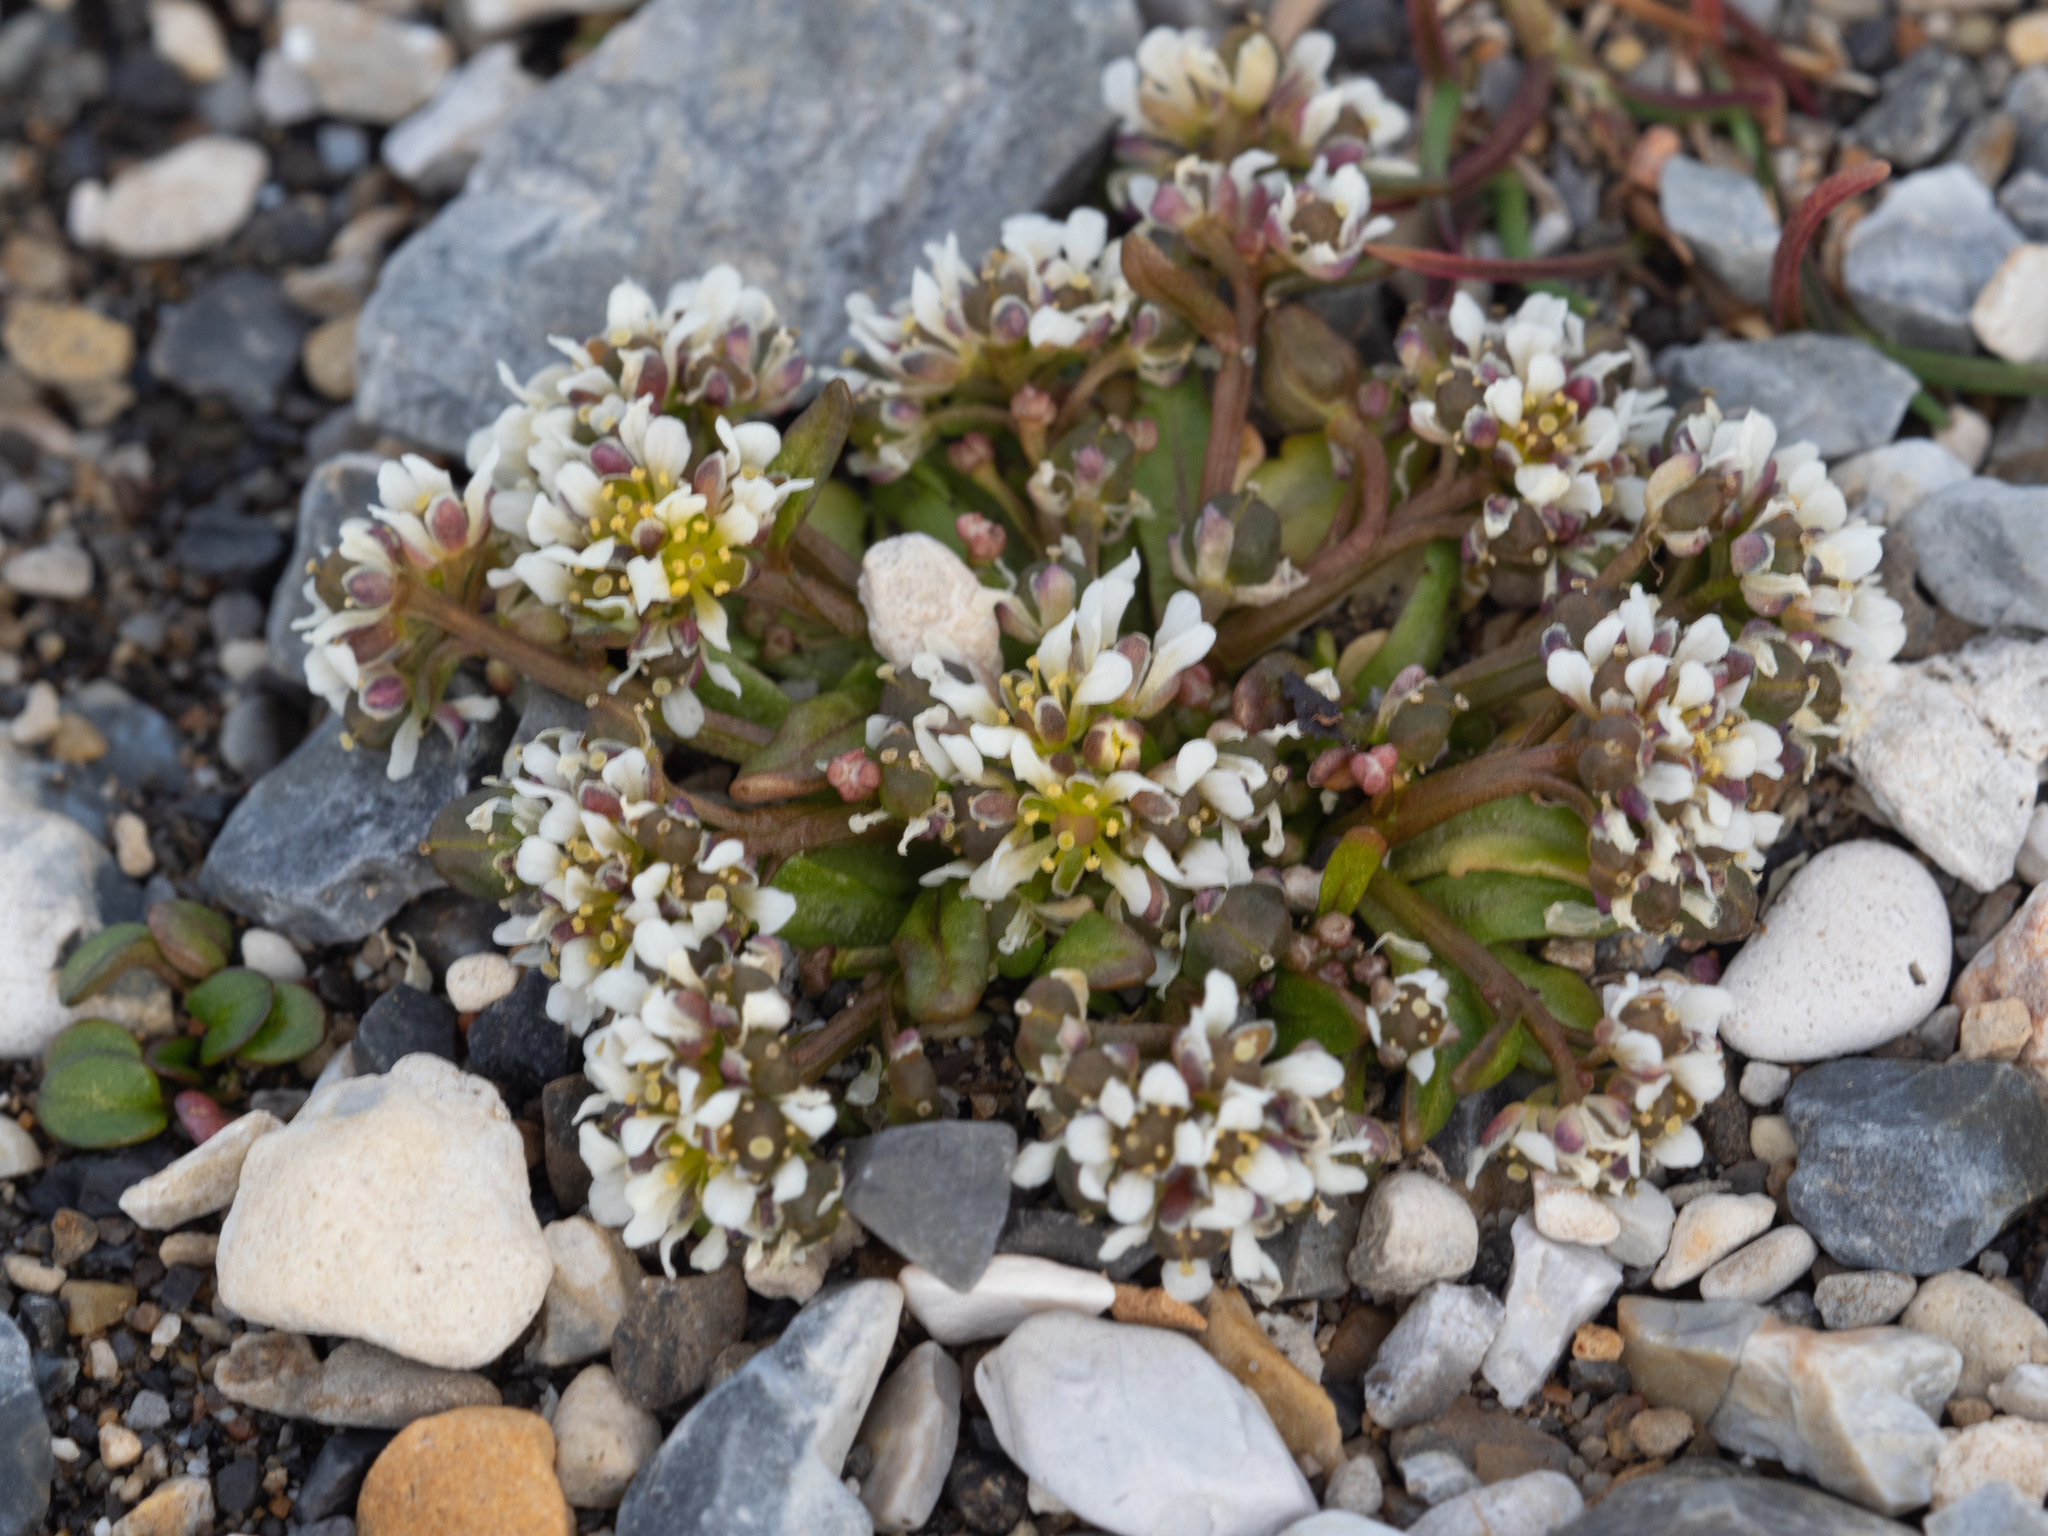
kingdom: Plantae
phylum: Tracheophyta
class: Magnoliopsida
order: Brassicales
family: Brassicaceae
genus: Cochlearia
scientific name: Cochlearia groenlandica
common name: Danish scurvygrass
